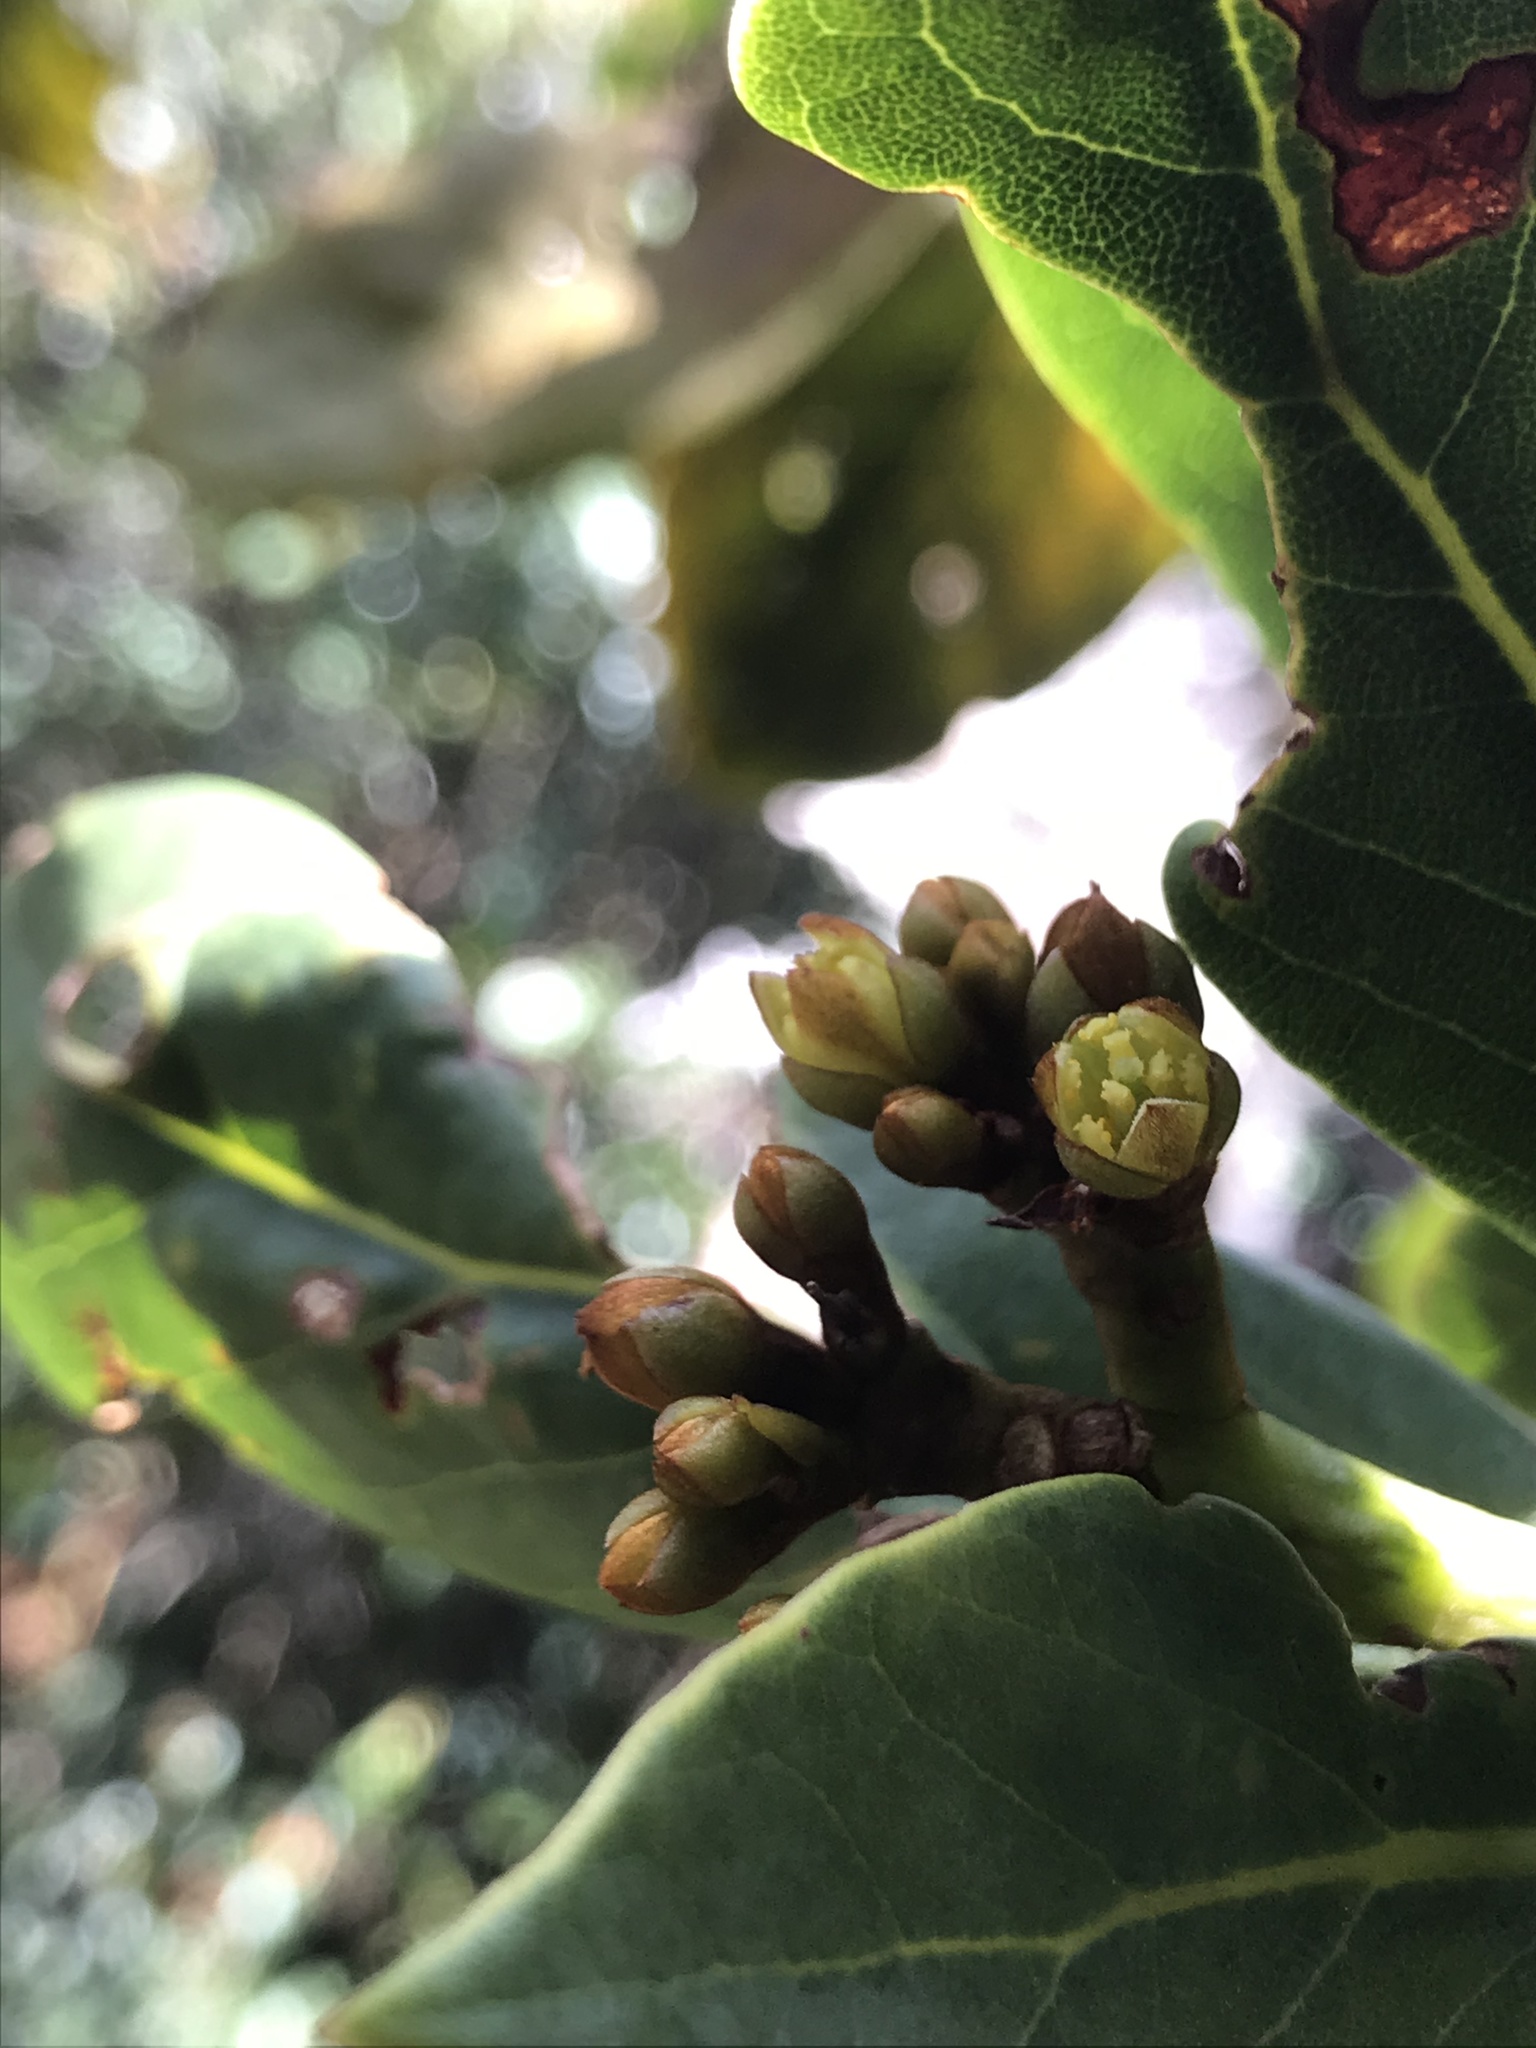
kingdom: Plantae
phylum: Tracheophyta
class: Magnoliopsida
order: Laurales
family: Lauraceae
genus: Persea
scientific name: Persea mutisii
